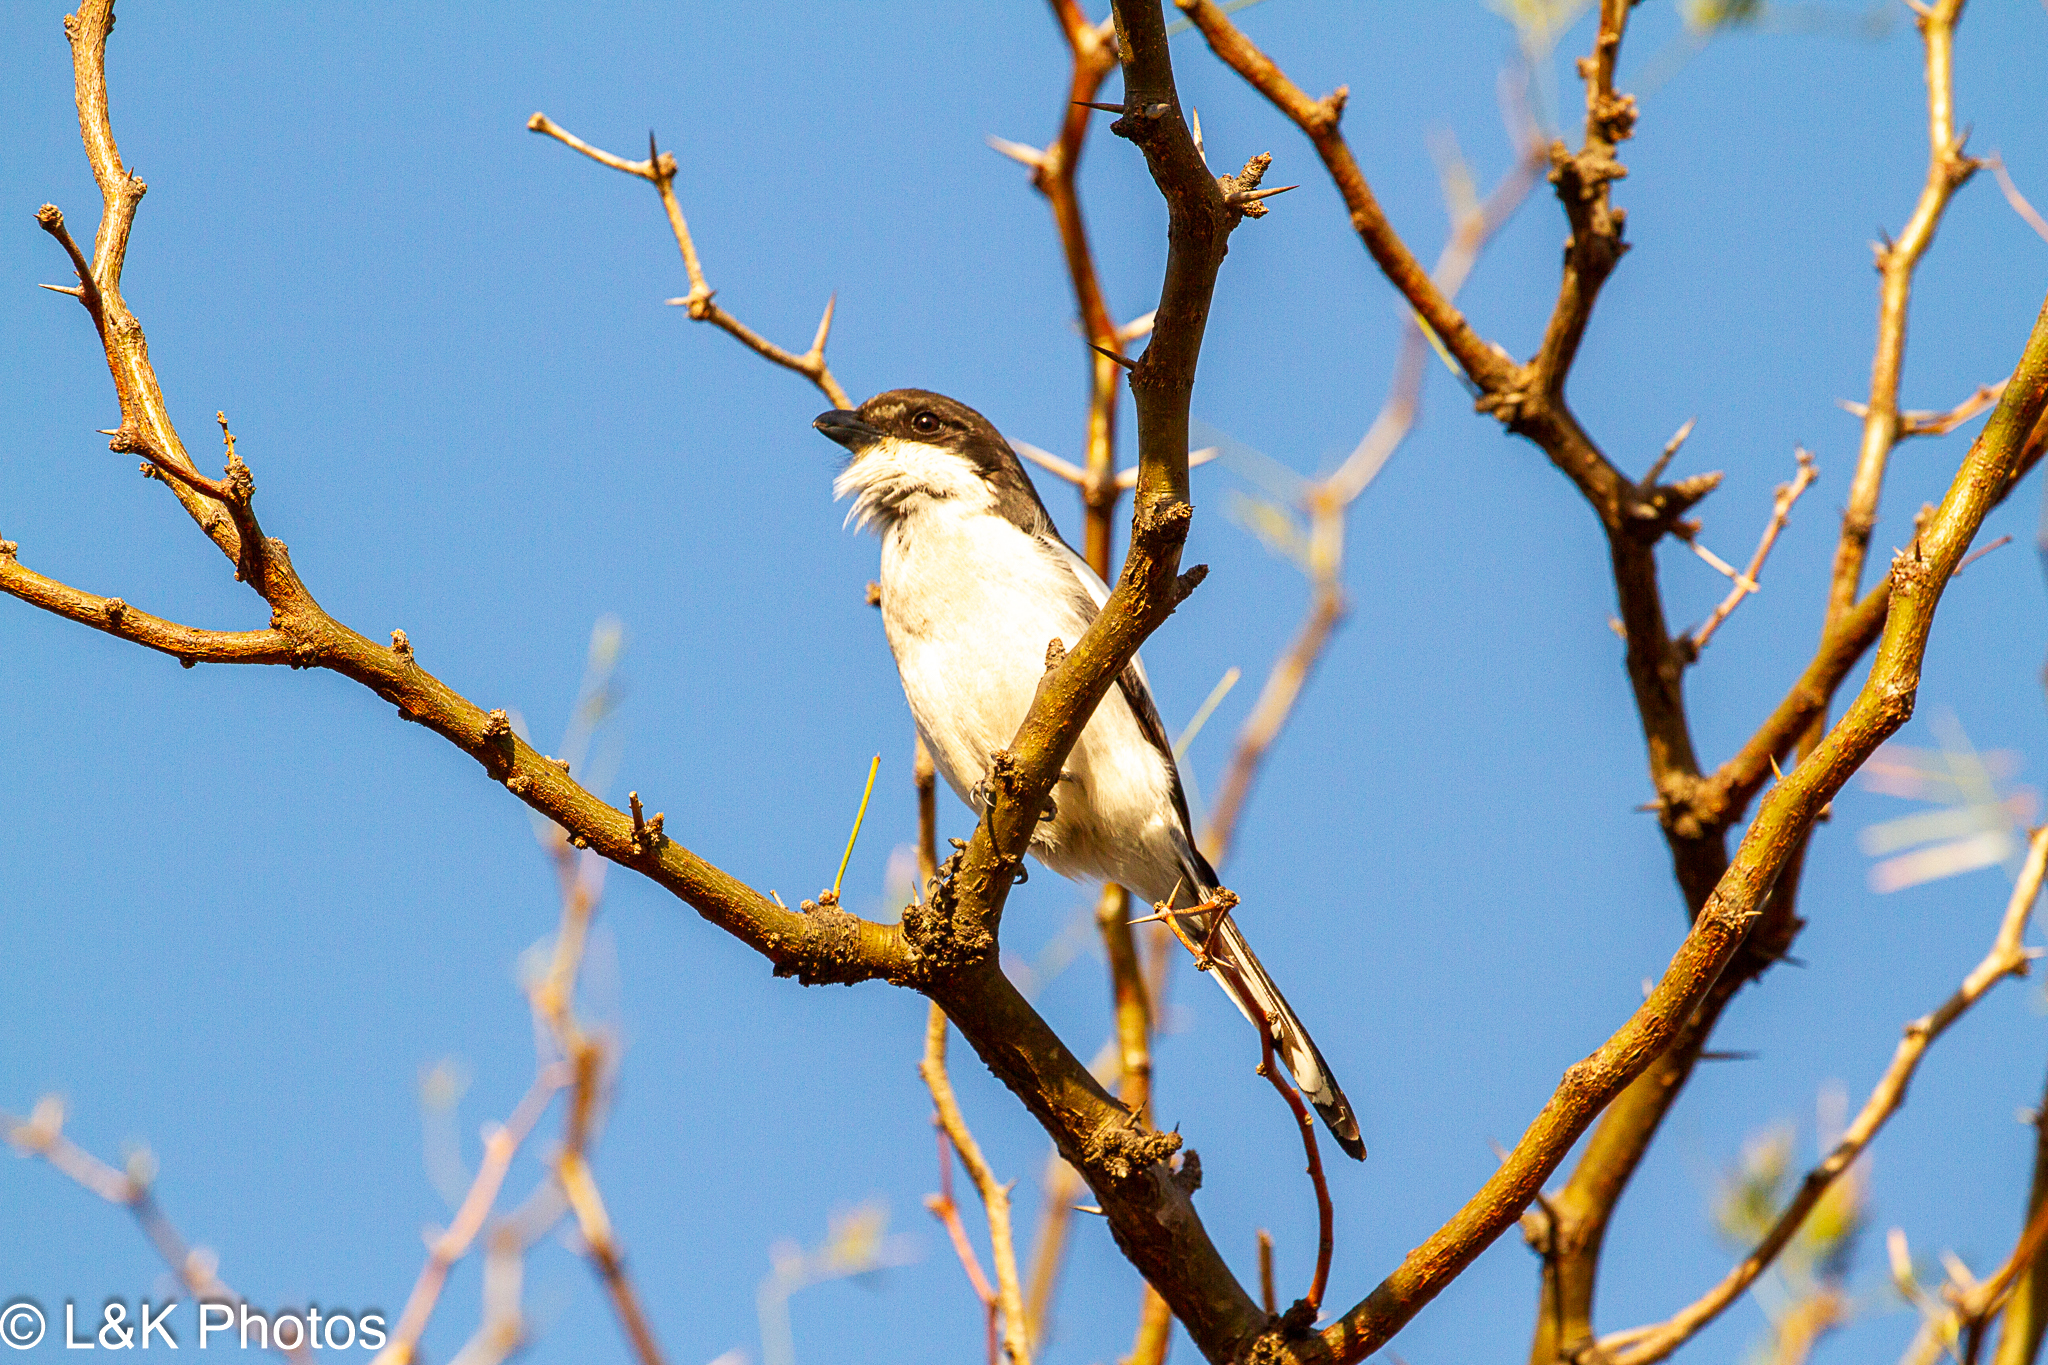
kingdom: Animalia
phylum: Chordata
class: Aves
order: Passeriformes
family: Laniidae
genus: Lanius
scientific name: Lanius collaris
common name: Southern fiscal
